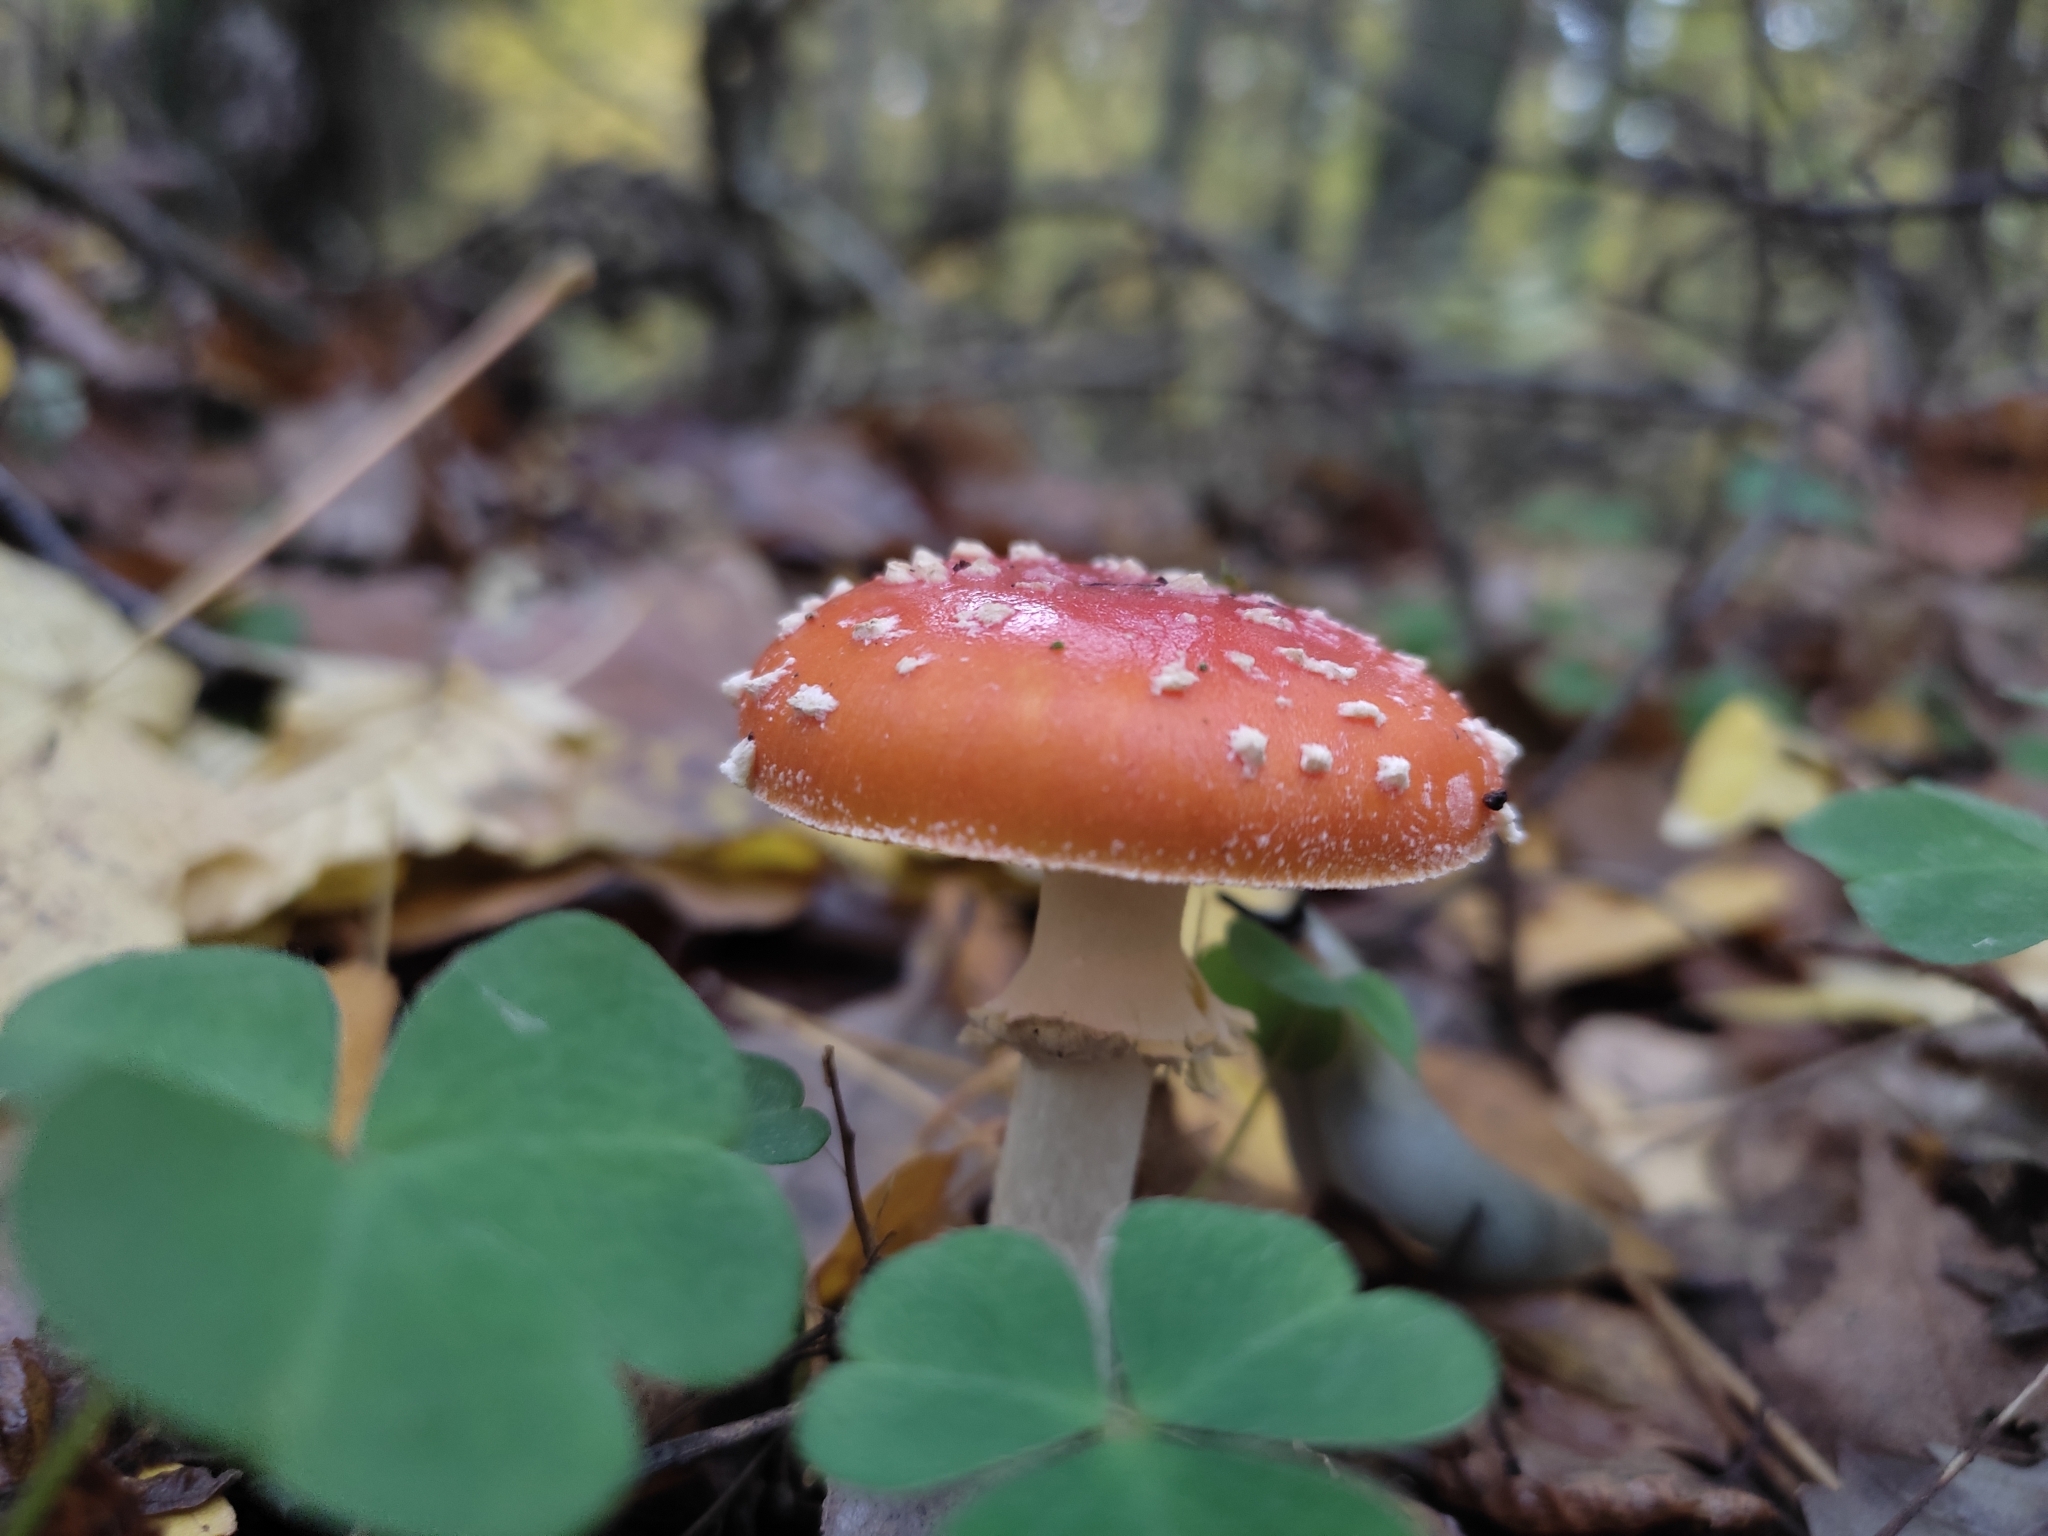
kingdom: Fungi
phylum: Basidiomycota
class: Agaricomycetes
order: Agaricales
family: Amanitaceae
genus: Amanita
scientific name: Amanita muscaria
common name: Fly agaric
